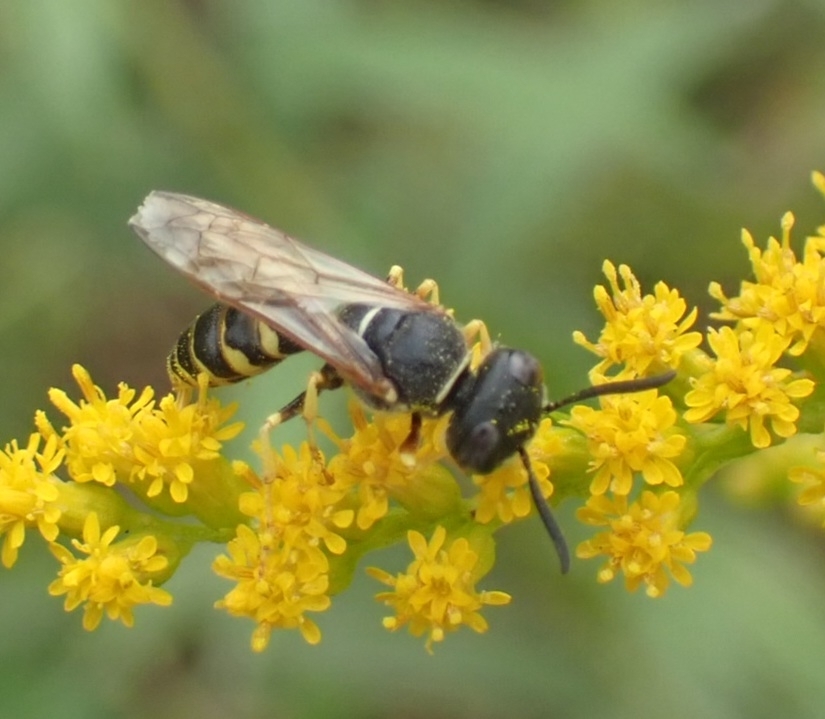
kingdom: Animalia
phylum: Arthropoda
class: Insecta
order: Hymenoptera
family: Crabronidae
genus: Philanthus
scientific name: Philanthus triangulum
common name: Bee wolf
